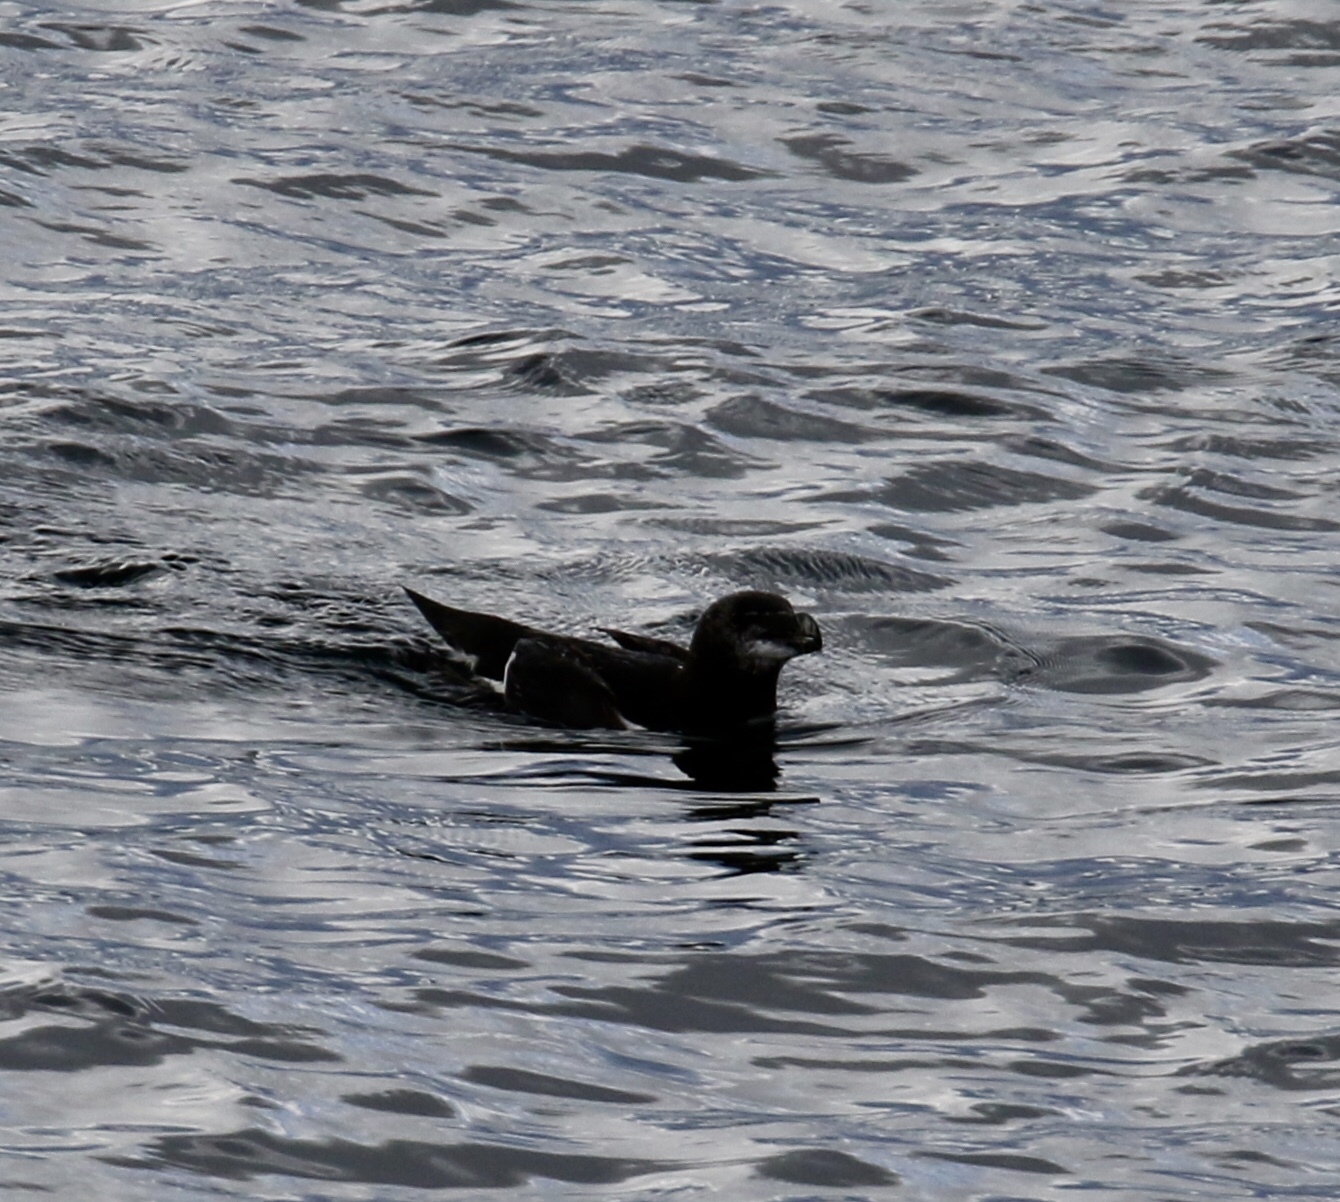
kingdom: Animalia
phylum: Chordata
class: Aves
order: Charadriiformes
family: Alcidae
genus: Alca
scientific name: Alca torda
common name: Razorbill
